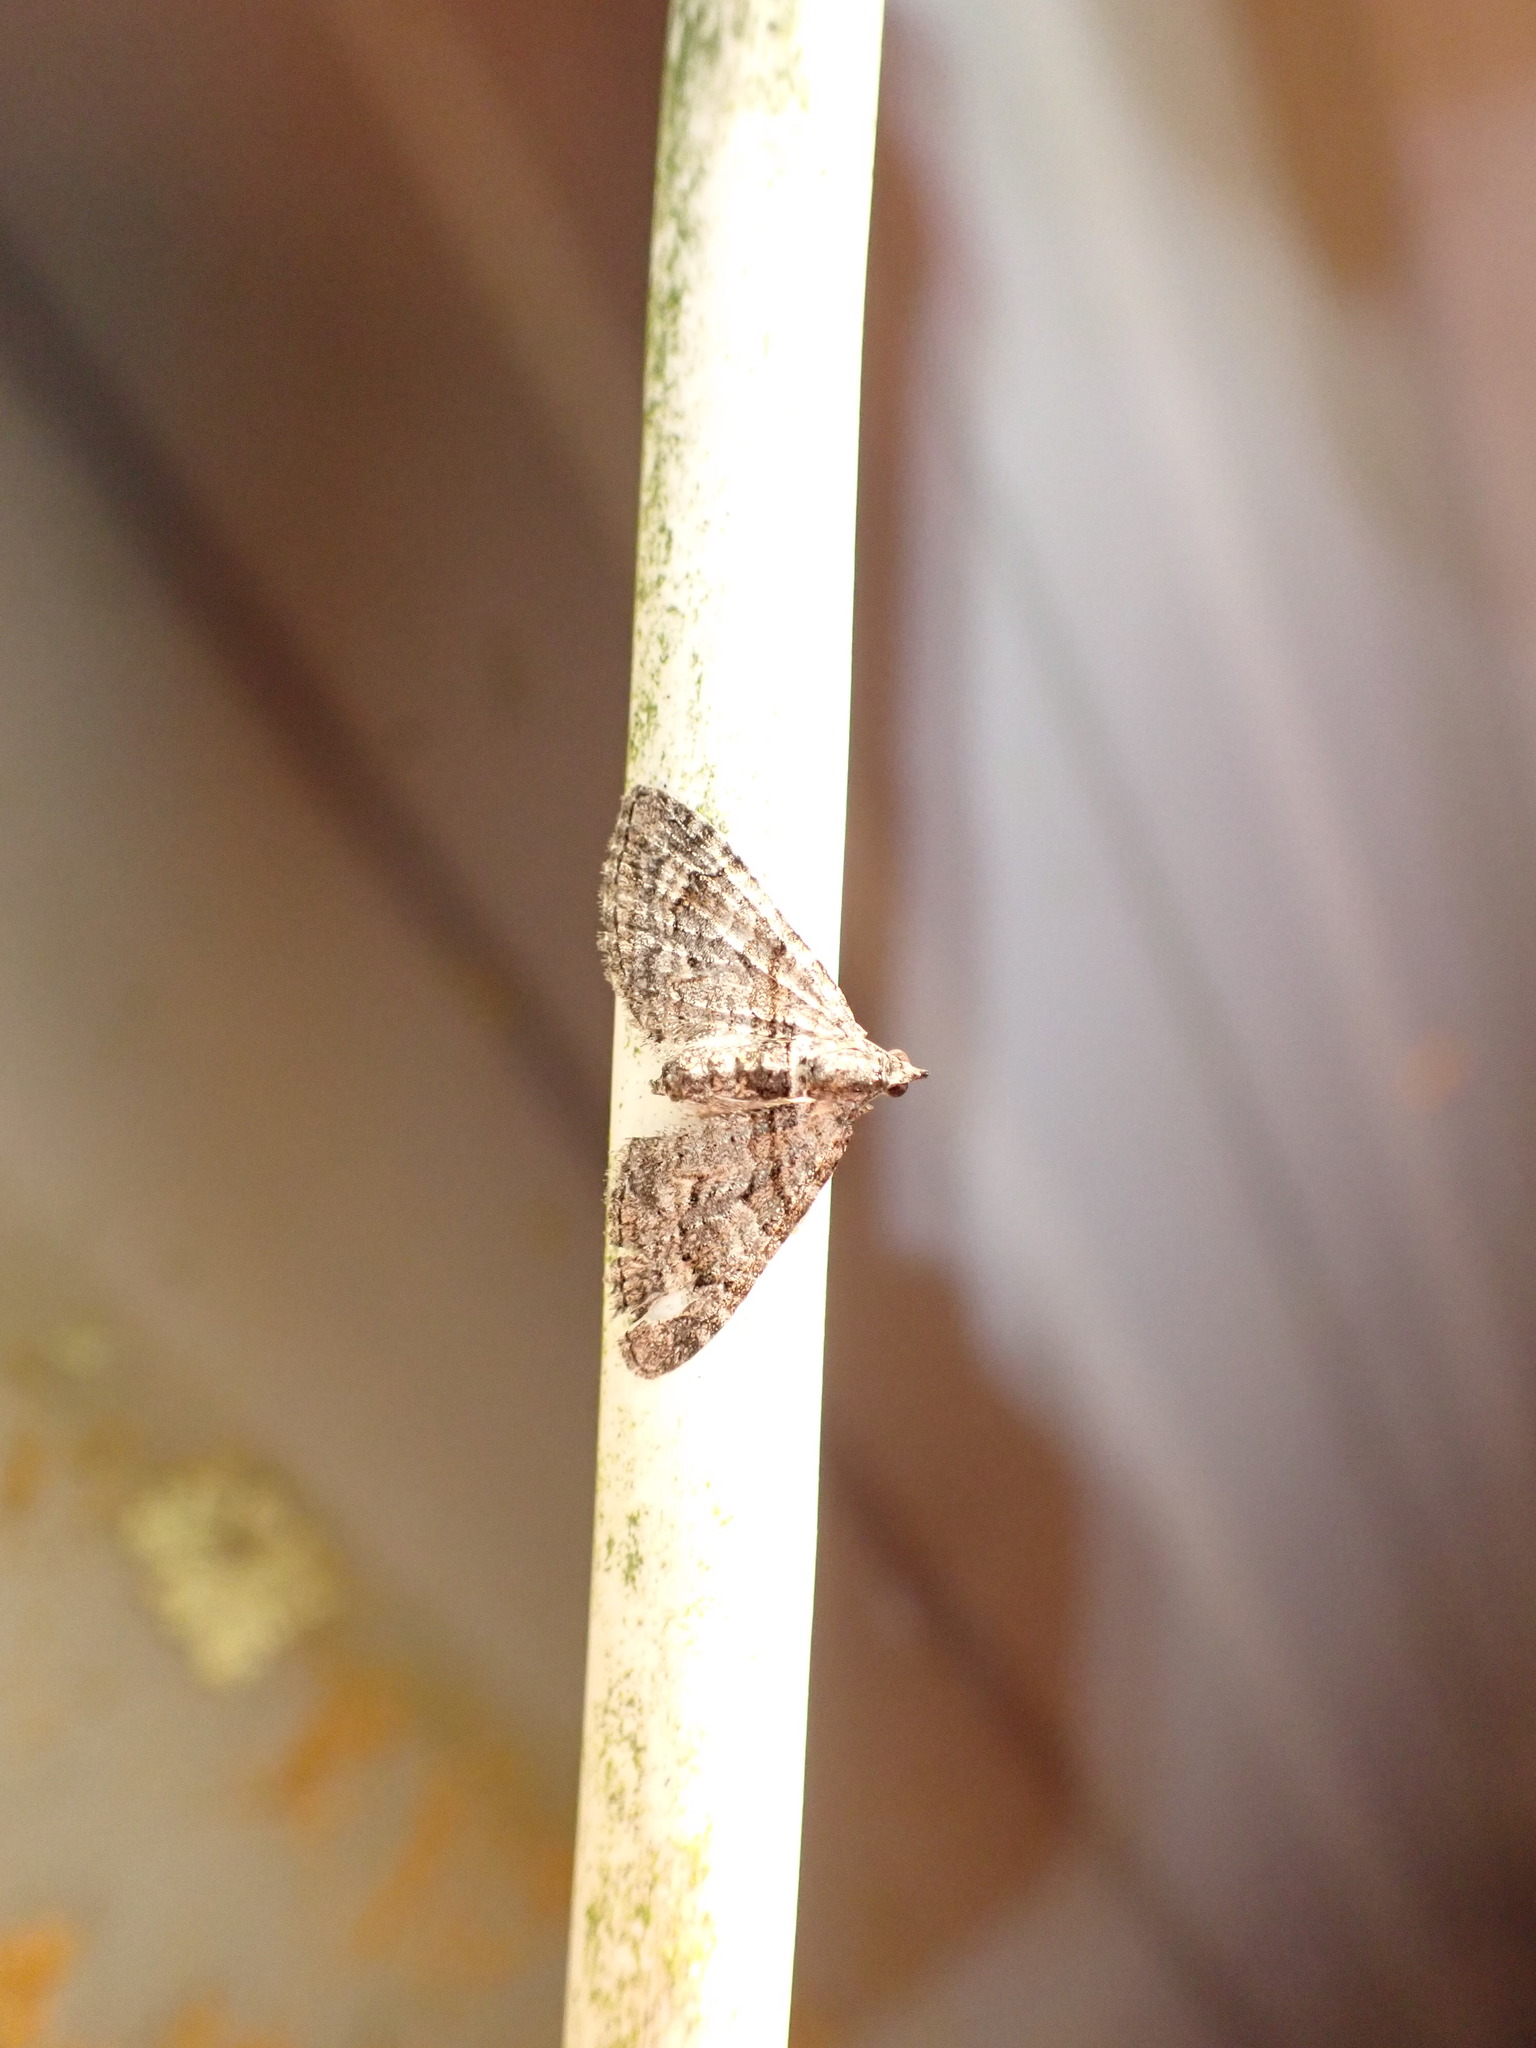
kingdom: Animalia
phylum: Arthropoda
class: Insecta
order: Lepidoptera
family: Geometridae
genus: Phrissogonus
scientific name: Phrissogonus laticostata
